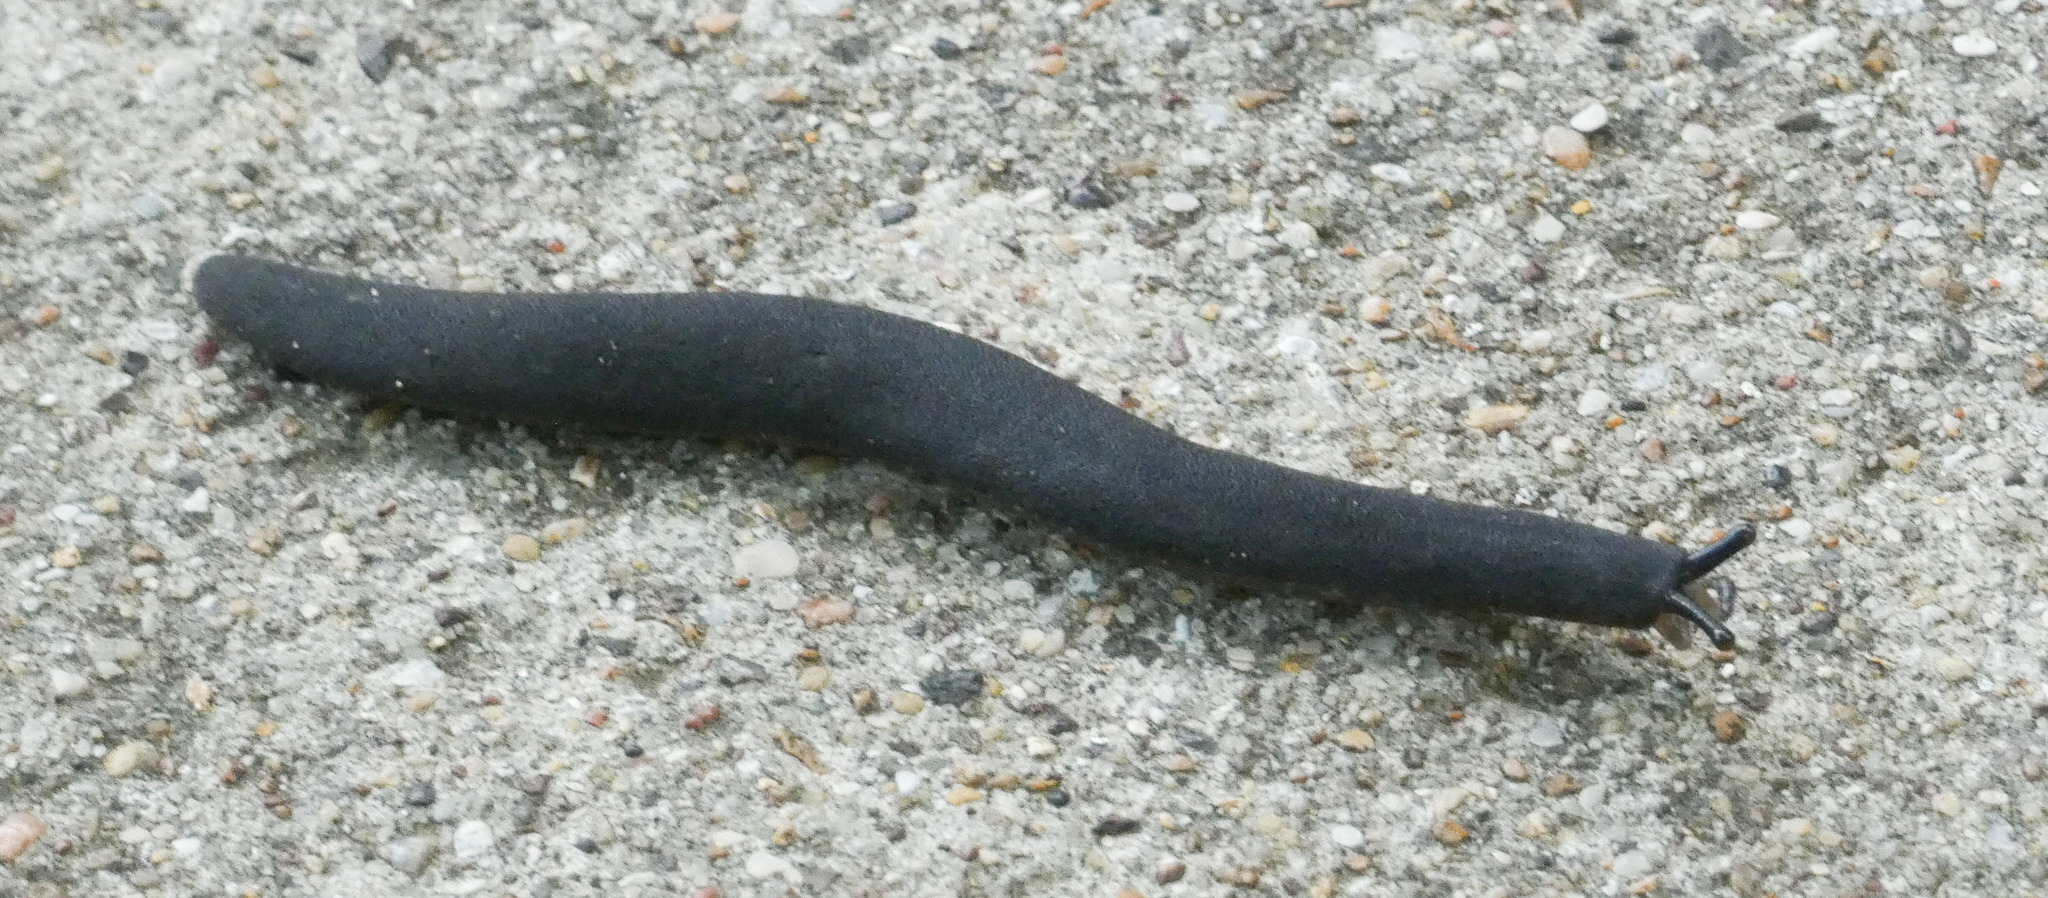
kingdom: Animalia
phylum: Mollusca
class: Gastropoda
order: Systellommatophora
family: Veronicellidae
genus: Belocaulus
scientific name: Belocaulus angustipes
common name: Black velvet leatherleaf slug
